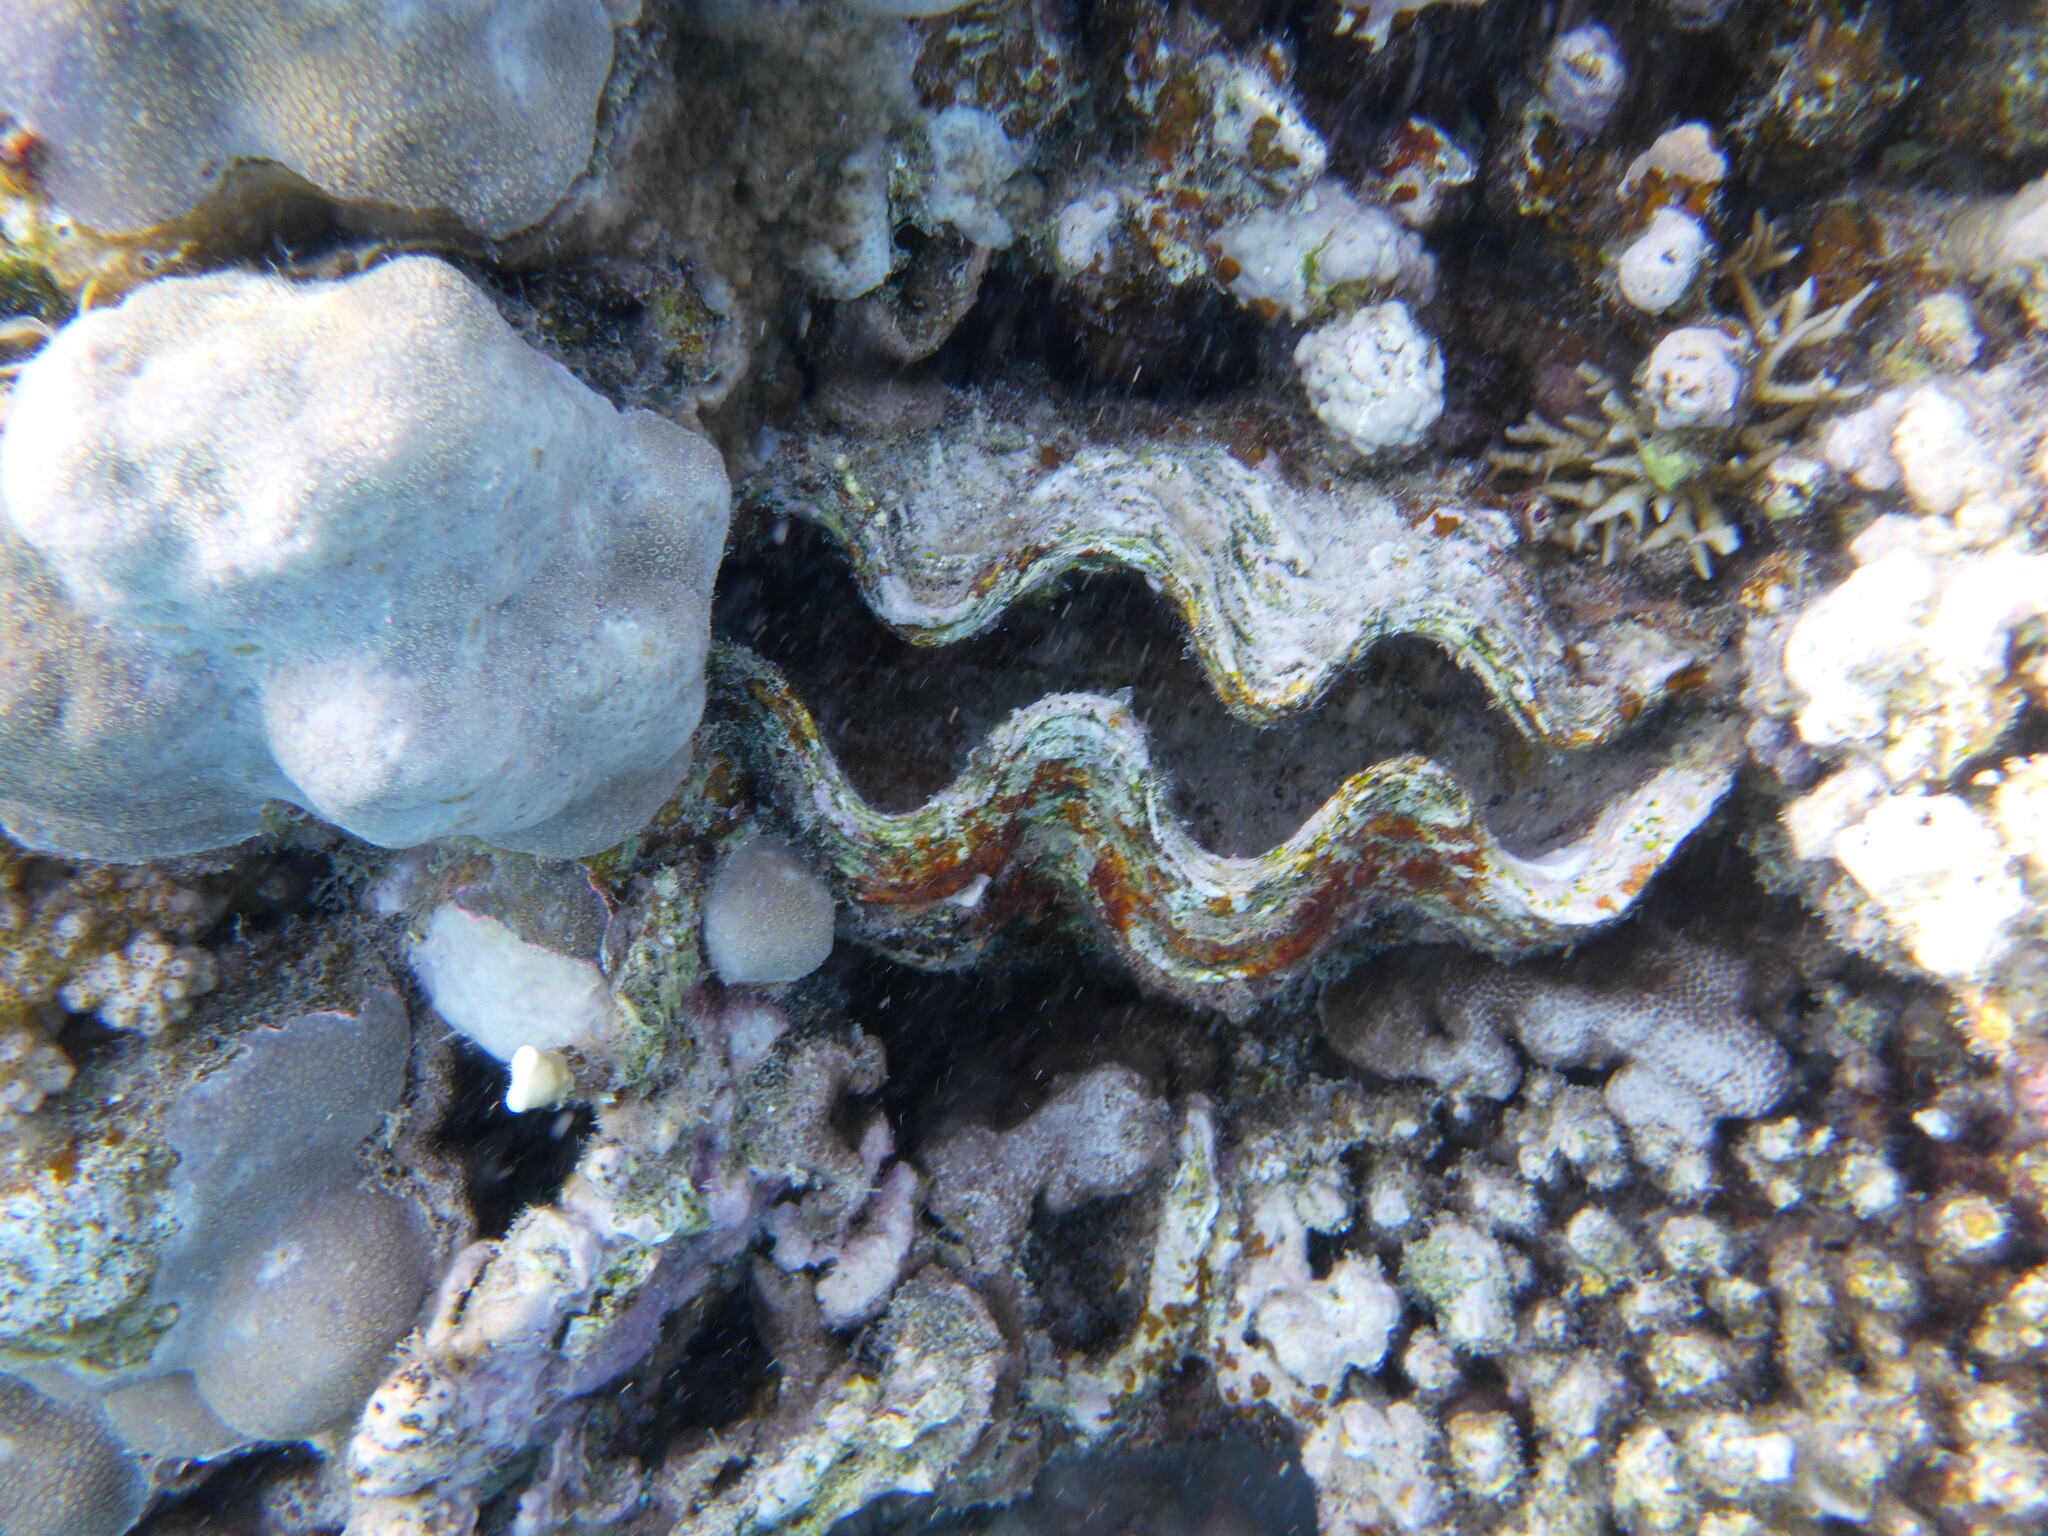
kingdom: Animalia
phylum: Mollusca
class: Bivalvia
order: Cardiida
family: Cardiidae
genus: Tridacna
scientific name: Tridacna maxima
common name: Small giant clam
